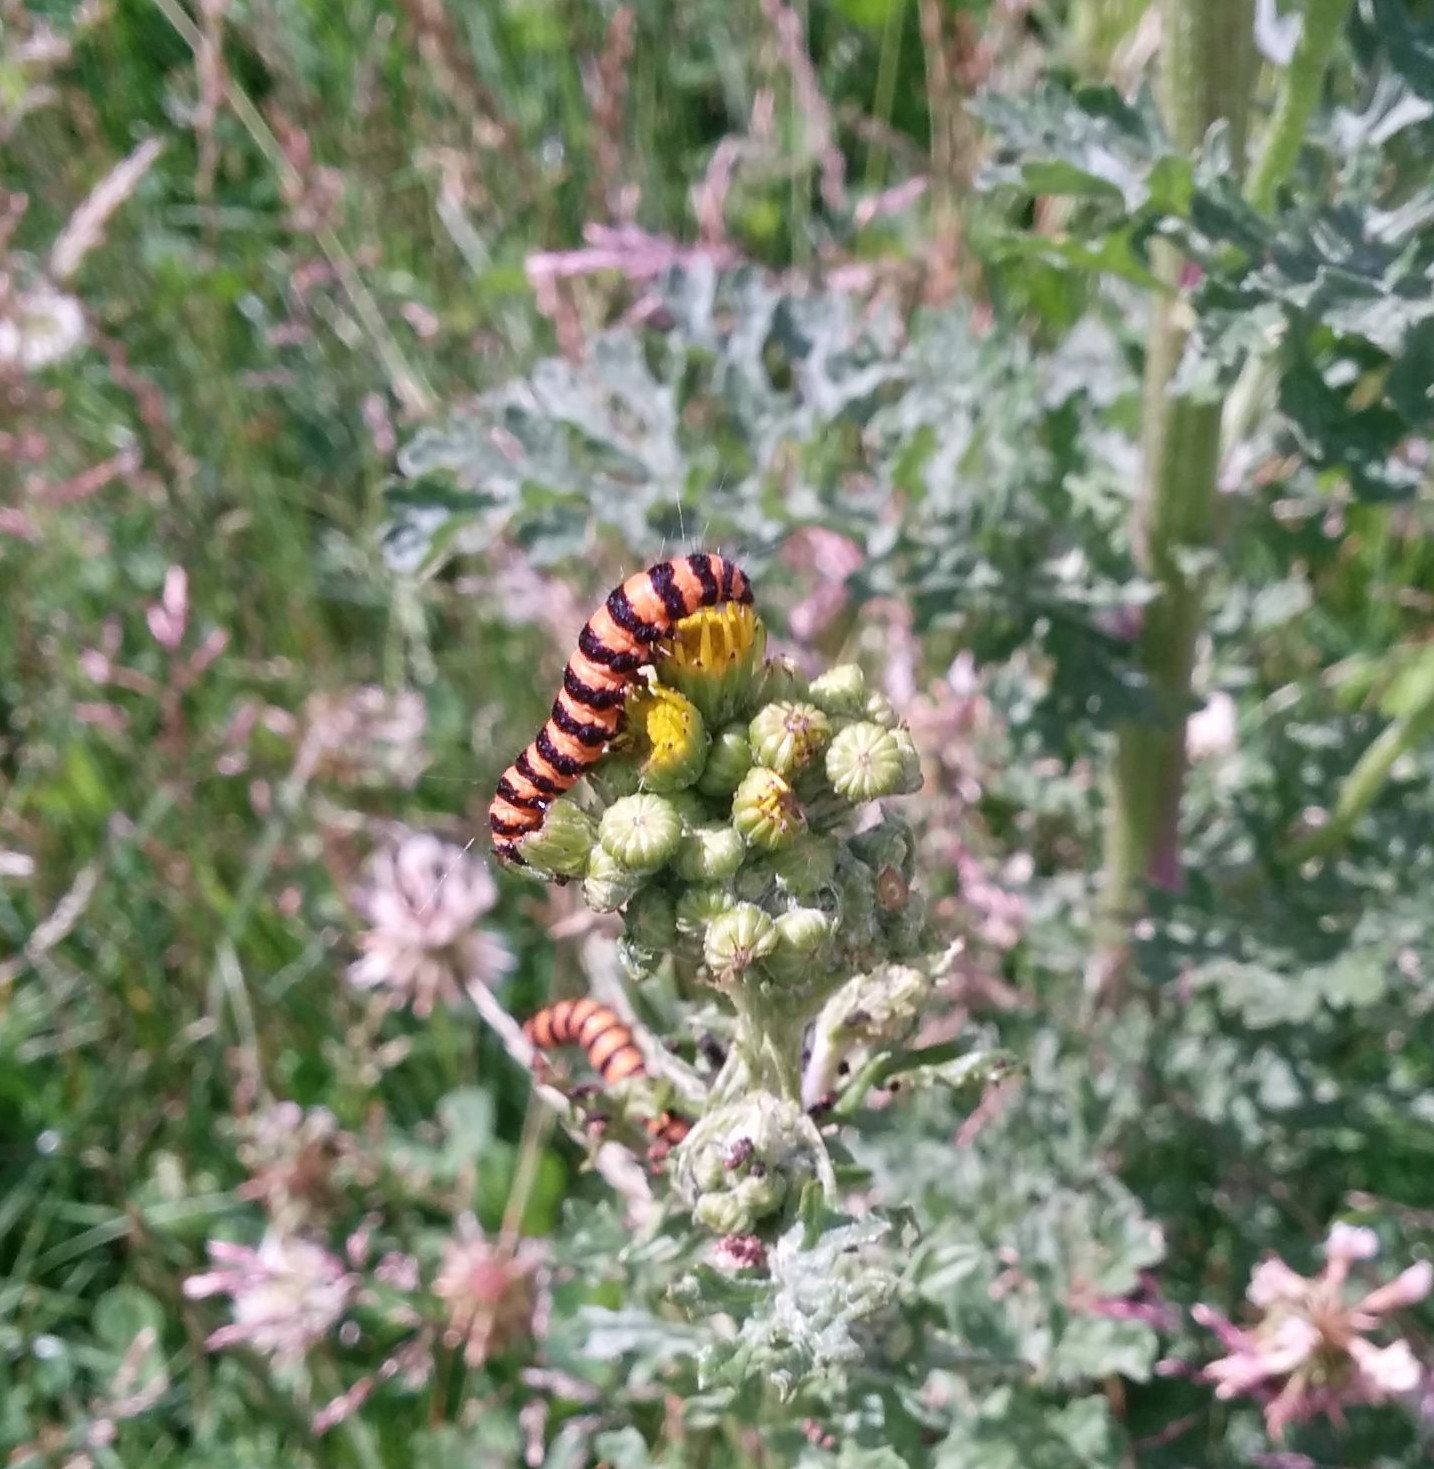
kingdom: Animalia
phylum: Arthropoda
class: Insecta
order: Lepidoptera
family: Erebidae
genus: Tyria
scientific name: Tyria jacobaeae
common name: Cinnabar
